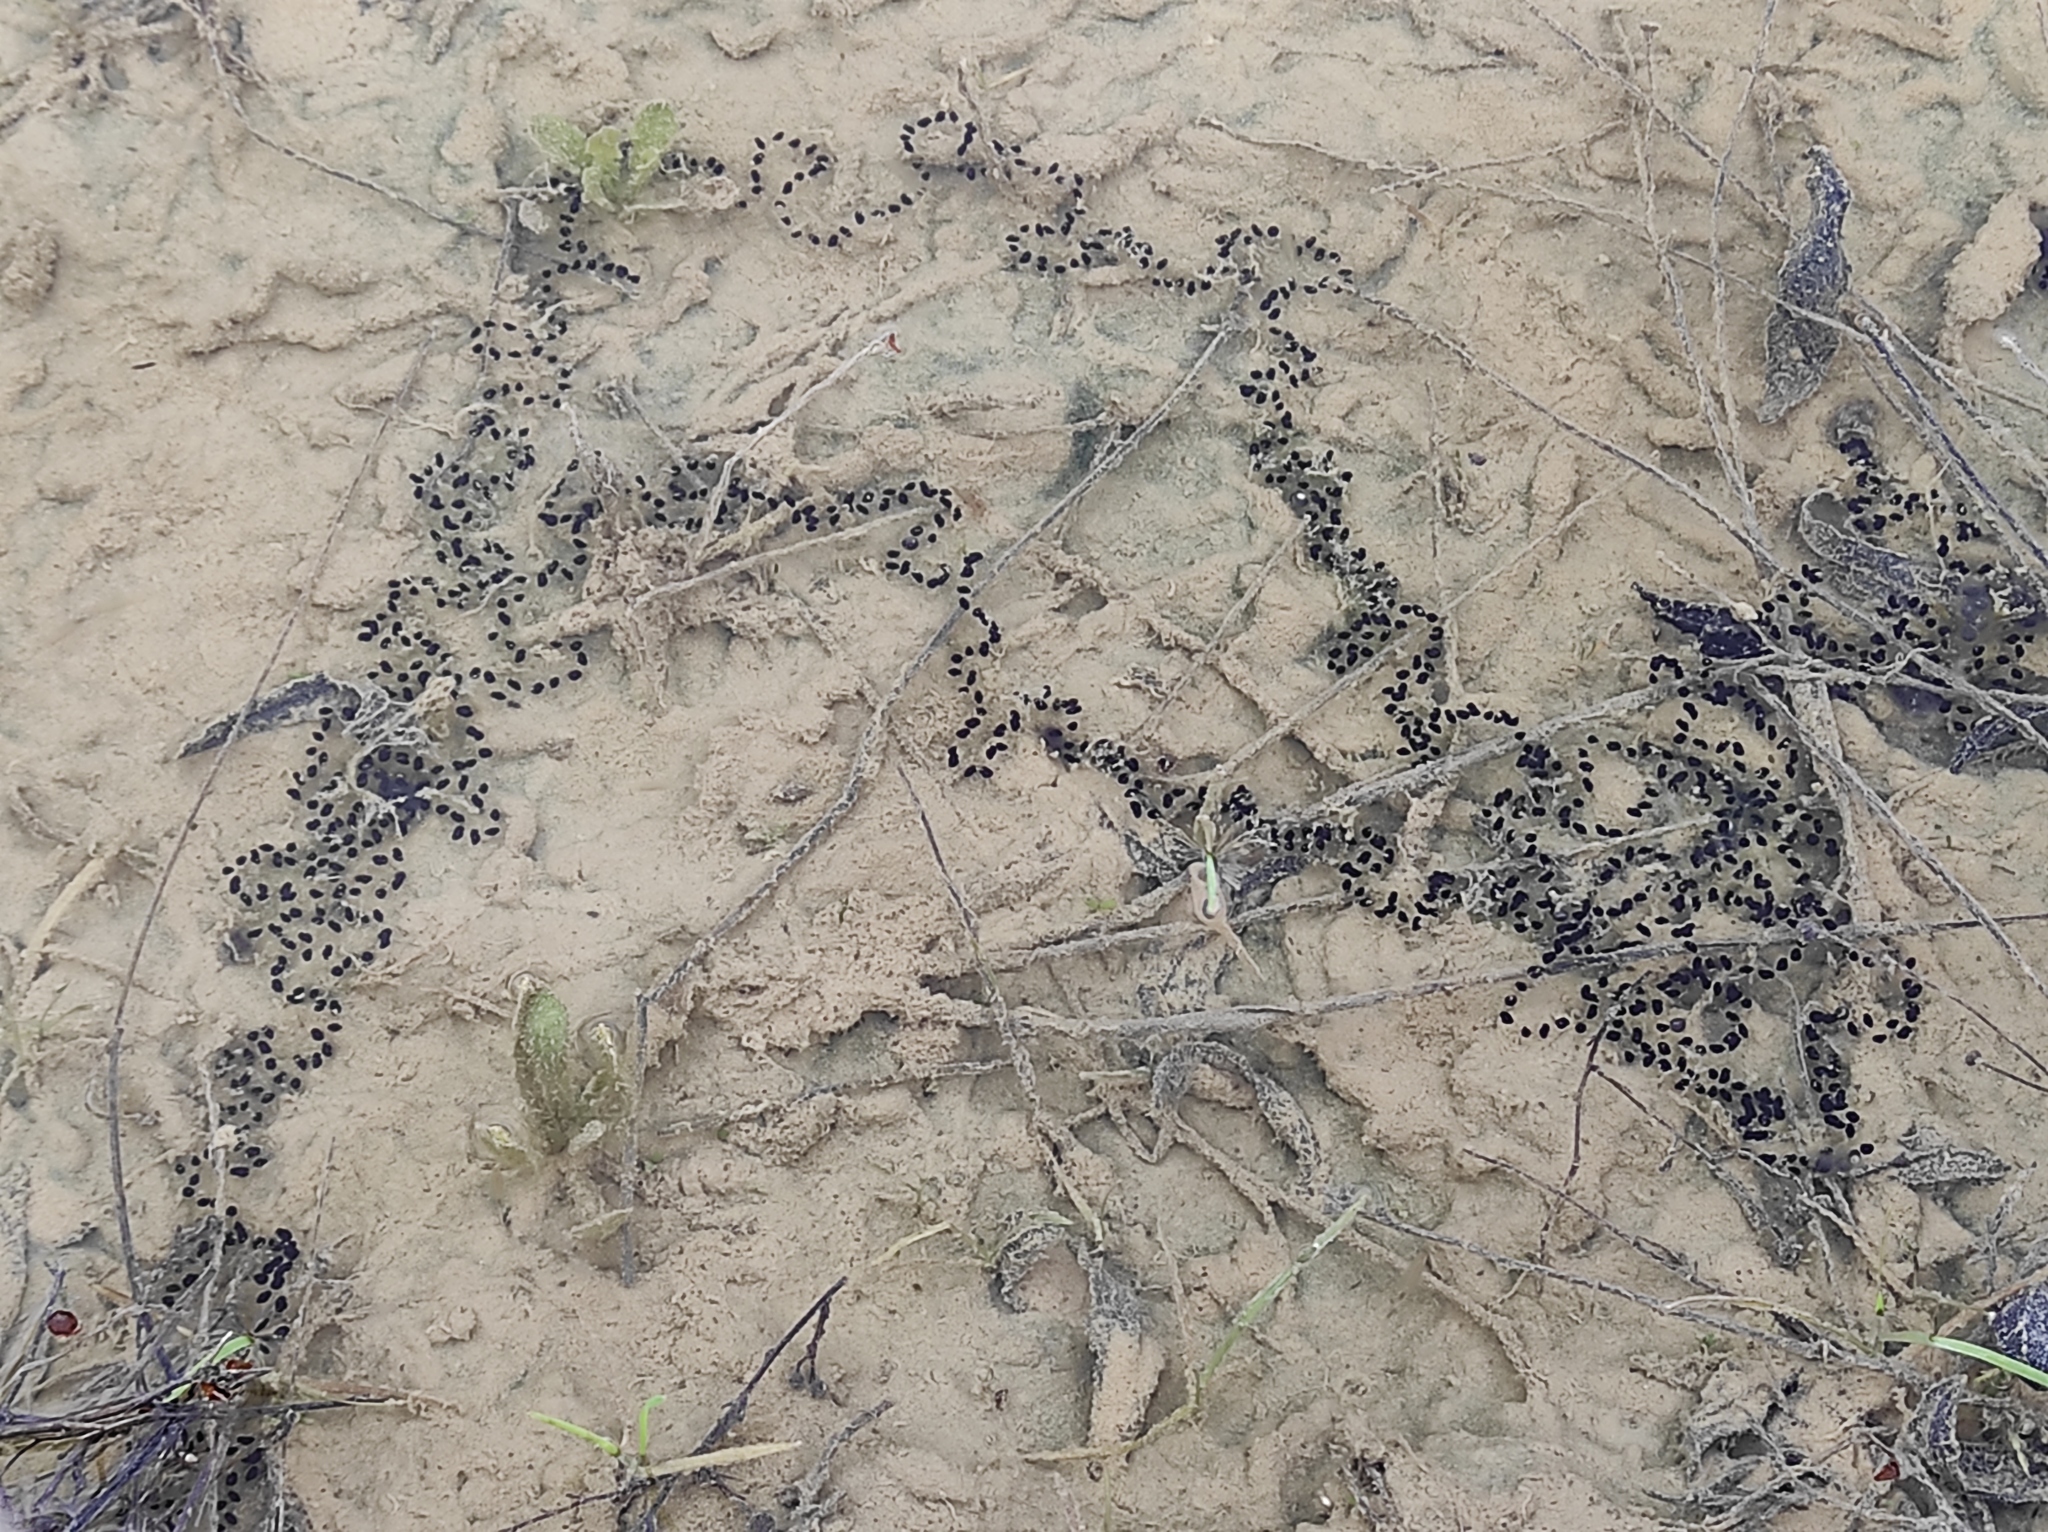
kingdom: Animalia
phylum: Chordata
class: Amphibia
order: Anura
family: Bufonidae
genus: Epidalea
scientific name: Epidalea calamita
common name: Natterjack toad
